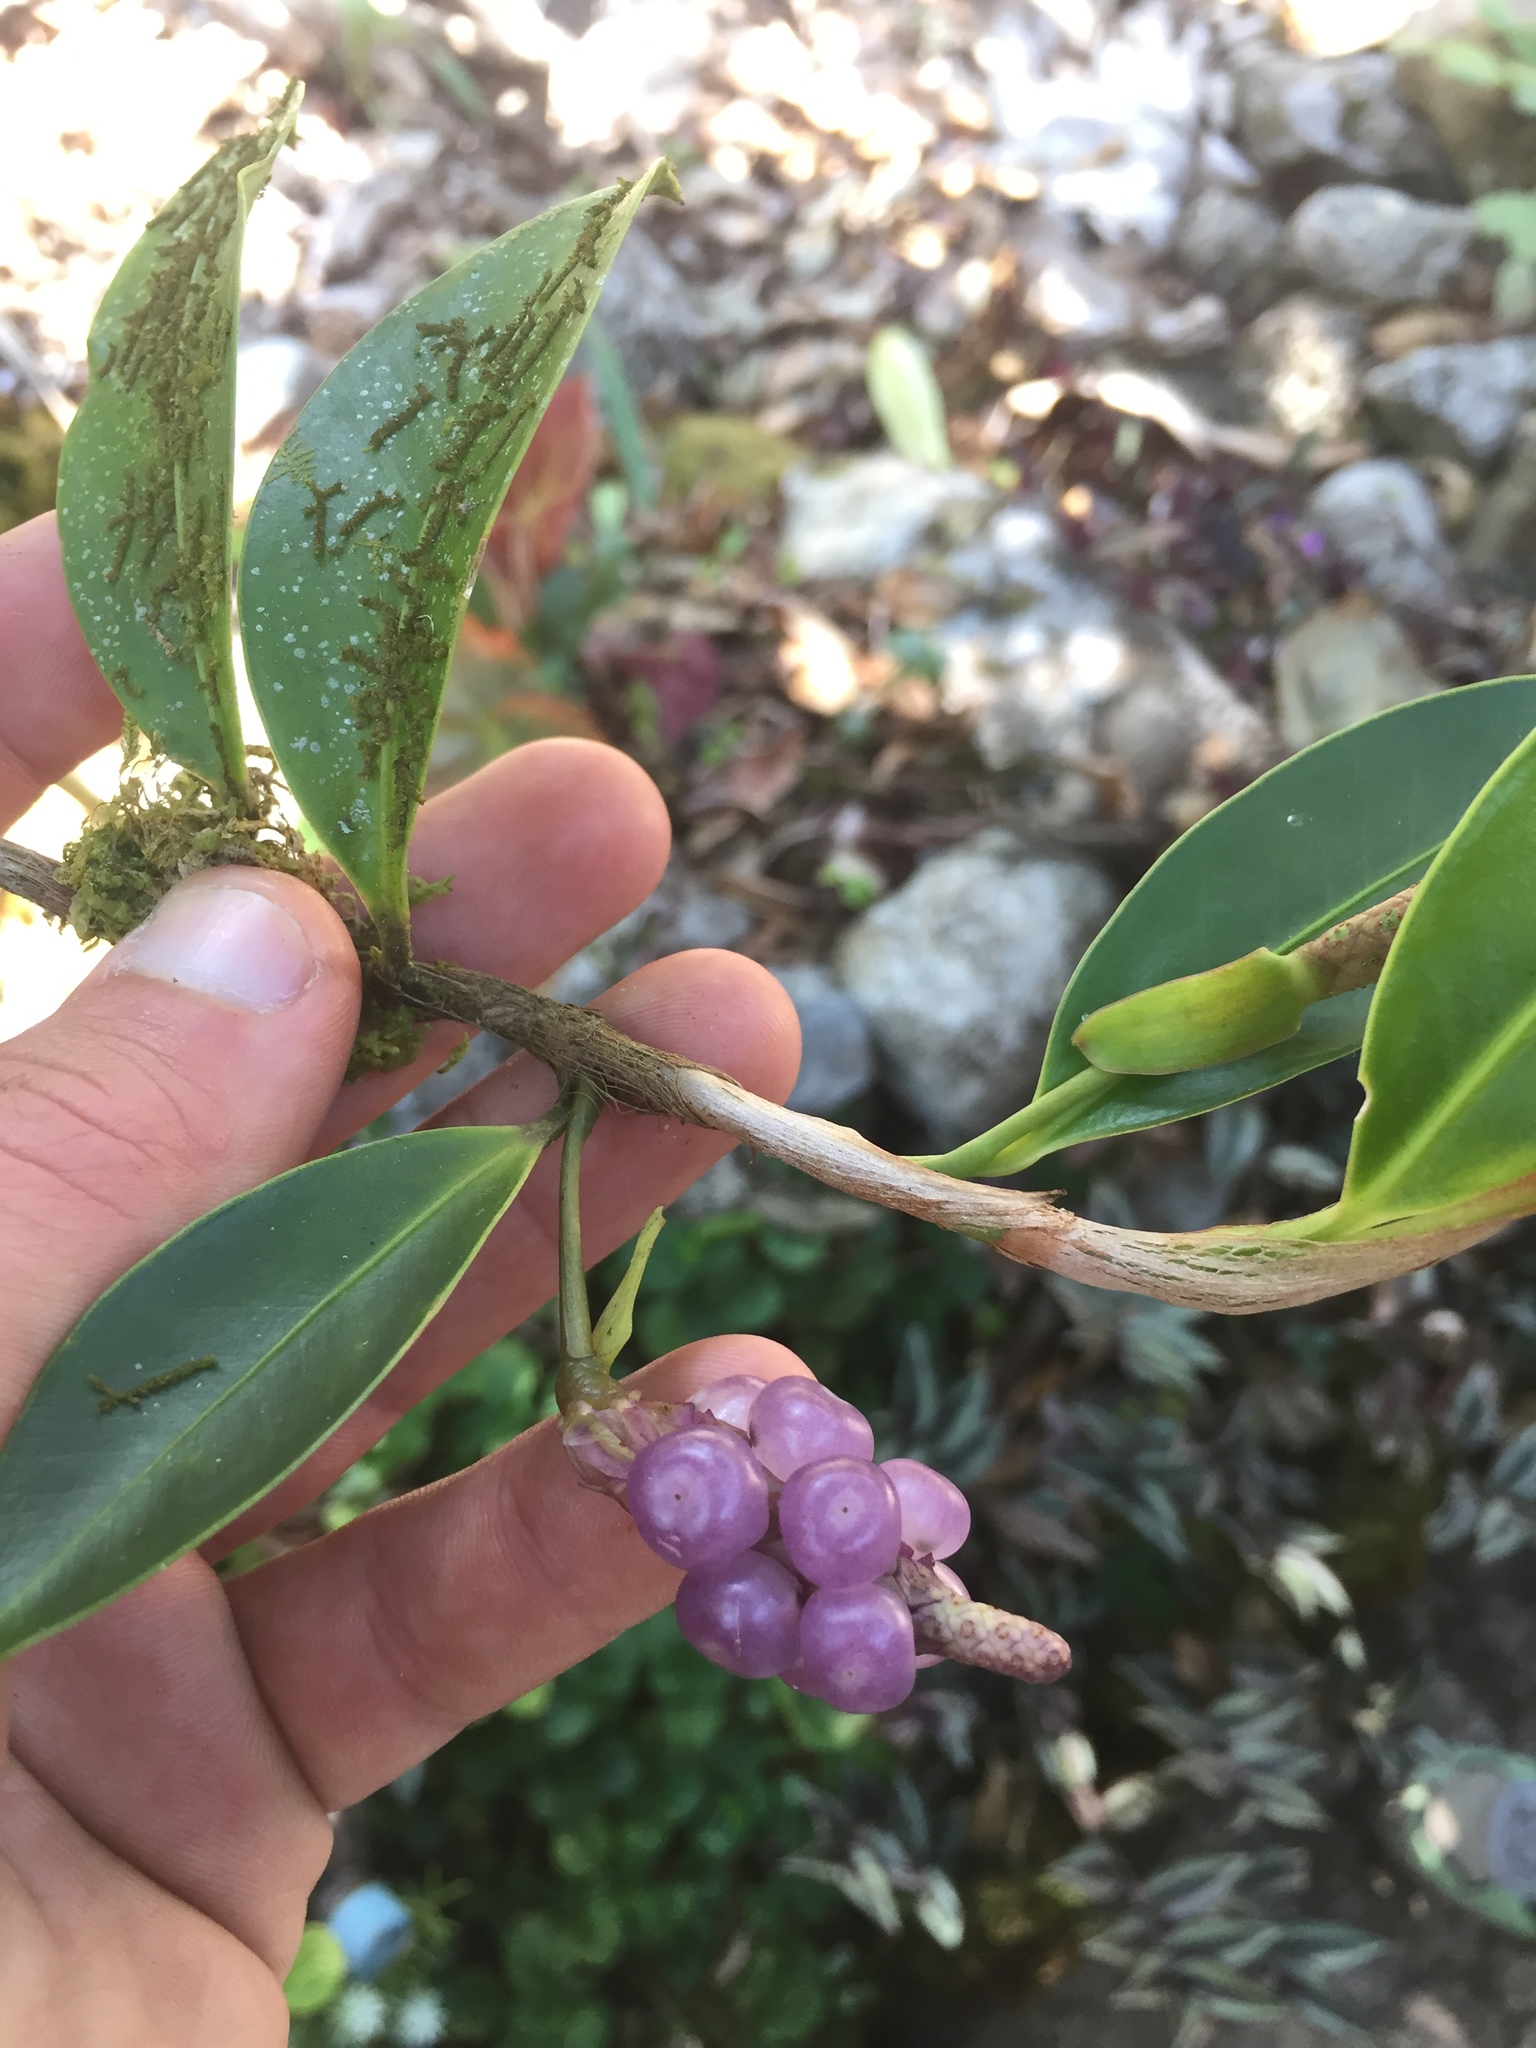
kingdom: Plantae
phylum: Tracheophyta
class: Liliopsida
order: Alismatales
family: Araceae
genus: Anthurium
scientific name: Anthurium scandens
